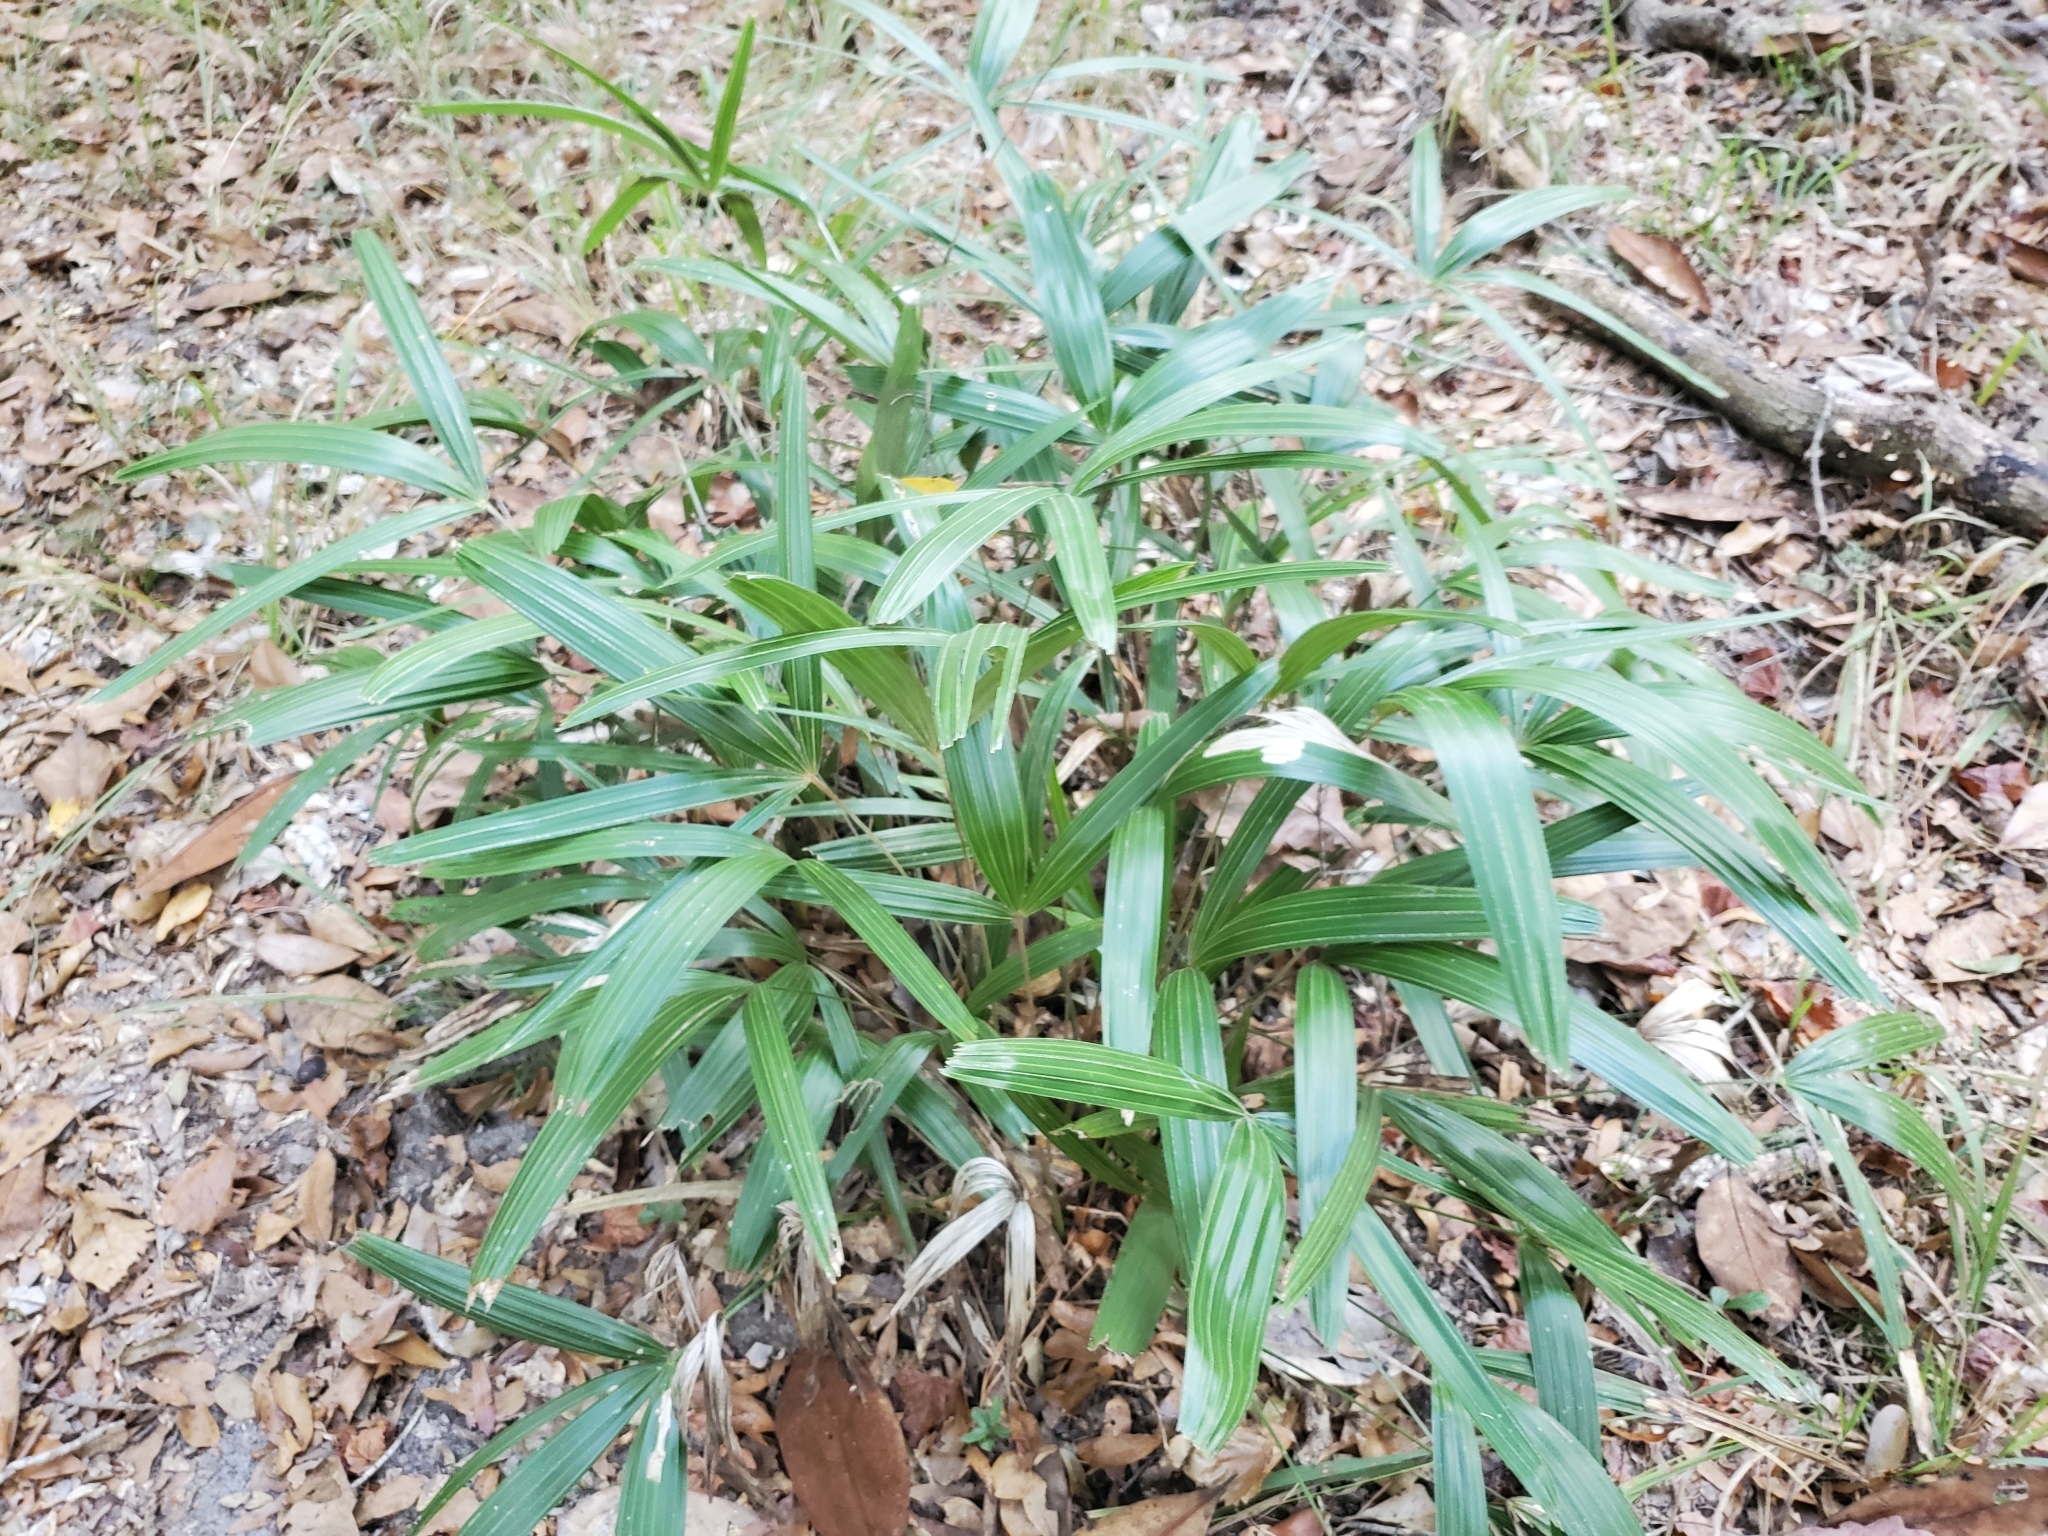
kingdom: Plantae
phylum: Tracheophyta
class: Liliopsida
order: Arecales
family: Arecaceae
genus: Rhapidophyllum
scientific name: Rhapidophyllum hystrix
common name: Porcupine palm
